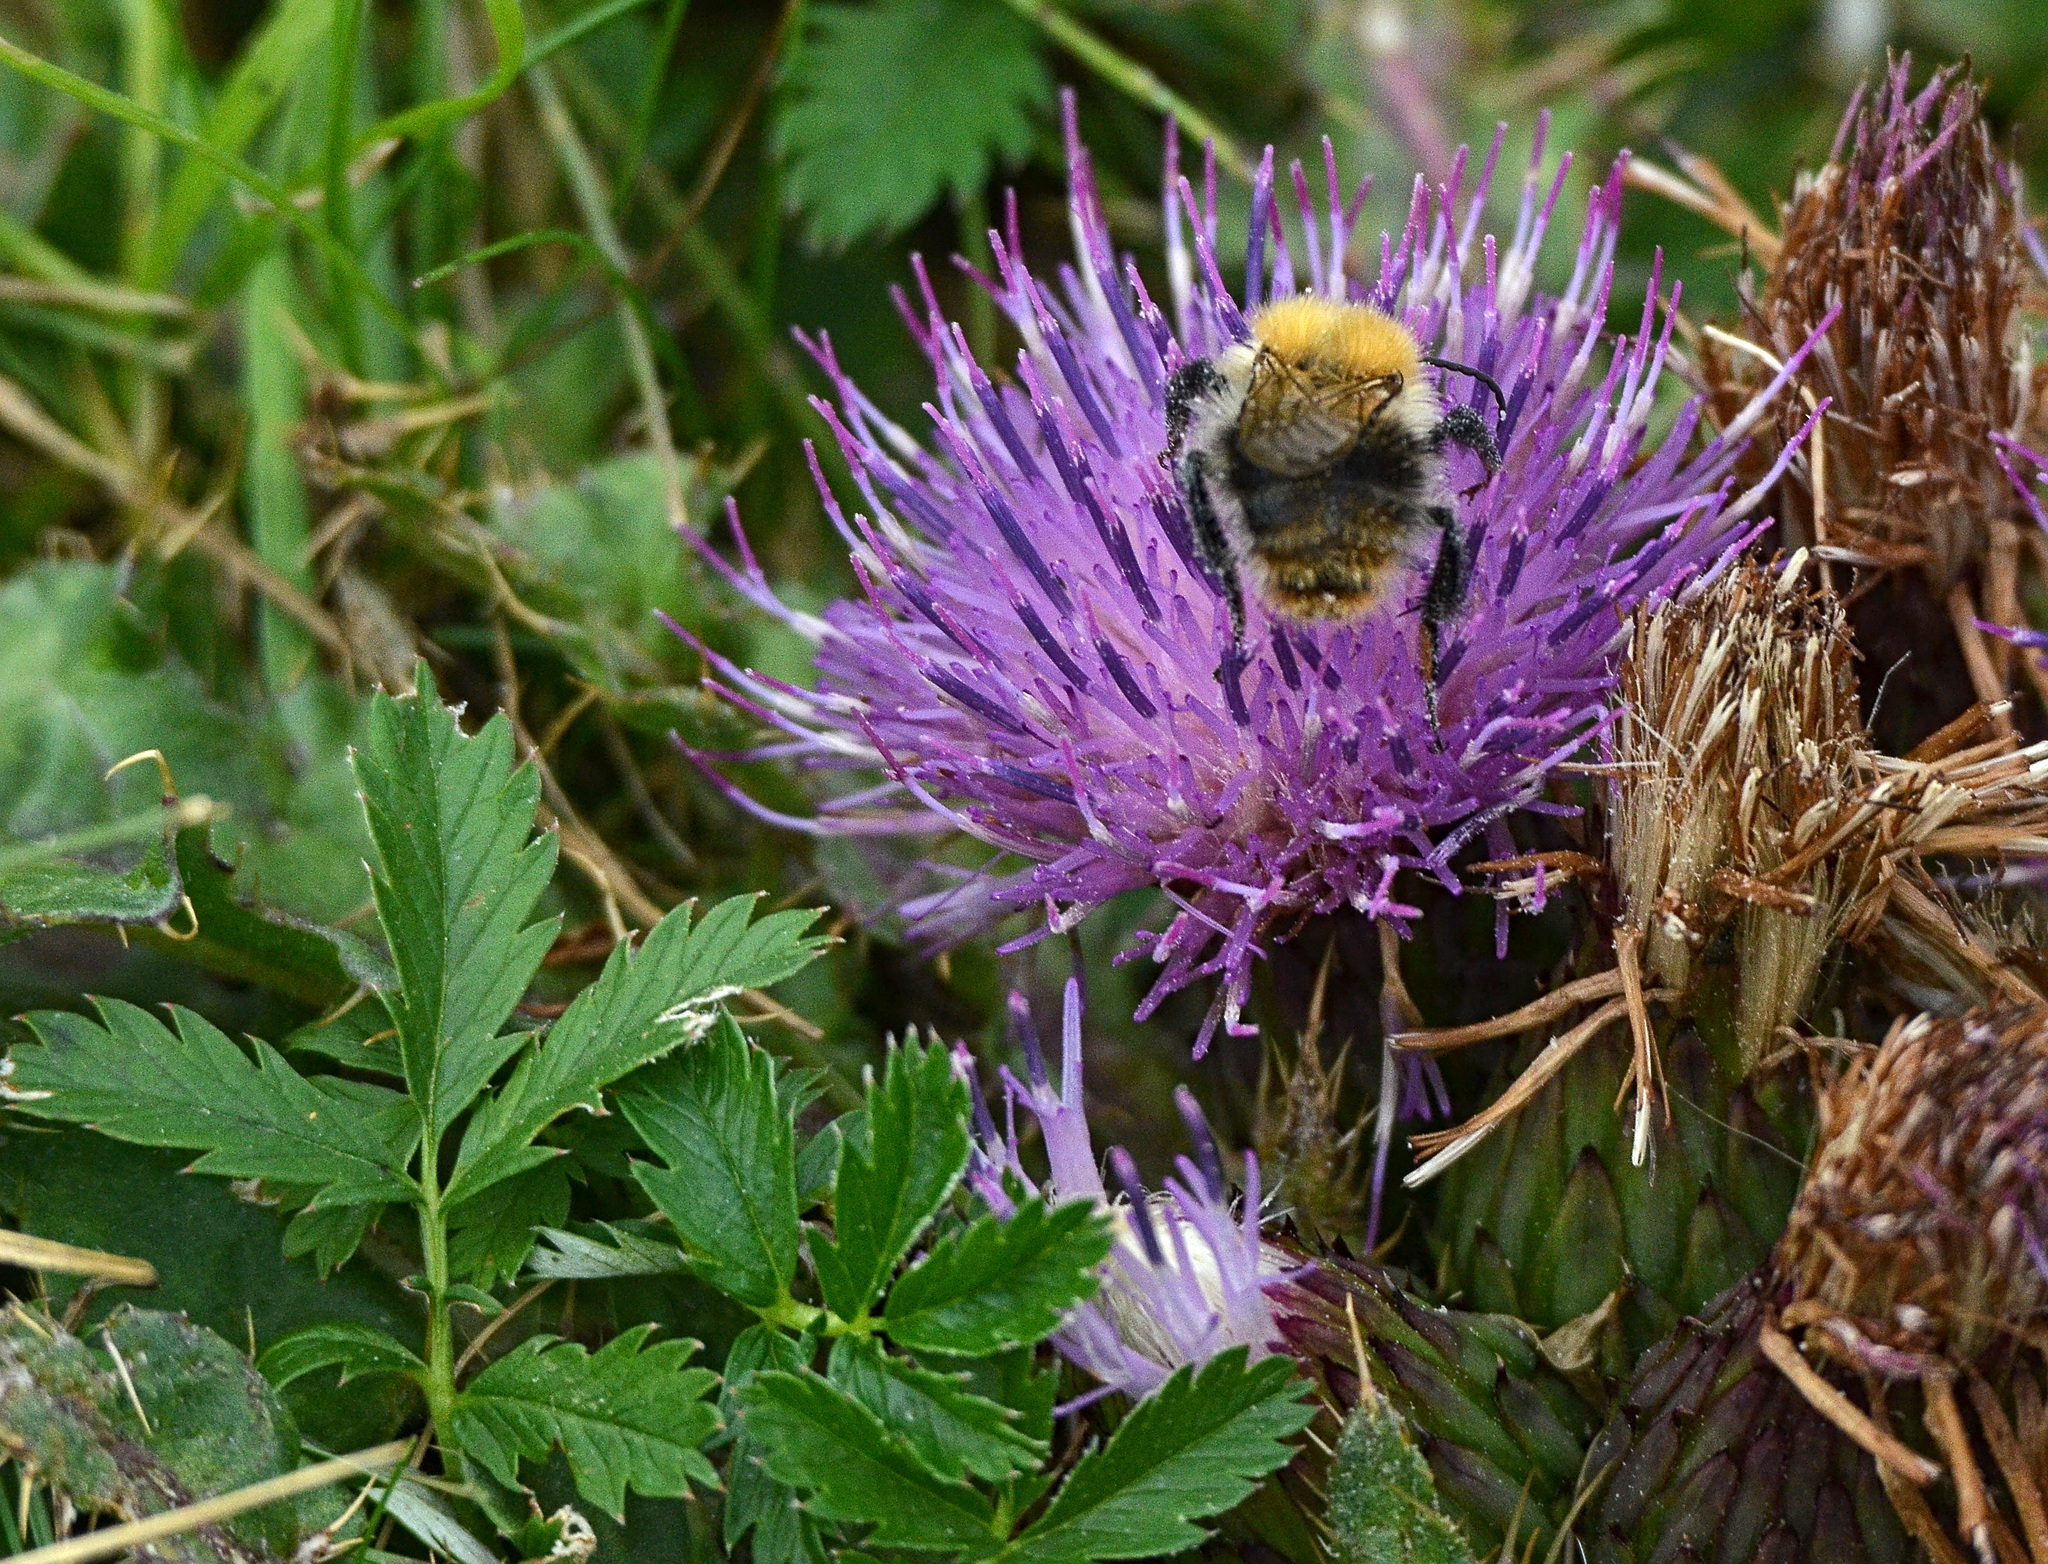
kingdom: Plantae
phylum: Tracheophyta
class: Magnoliopsida
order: Rosales
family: Rosaceae
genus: Argentina
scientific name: Argentina anserina
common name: Common silverweed
